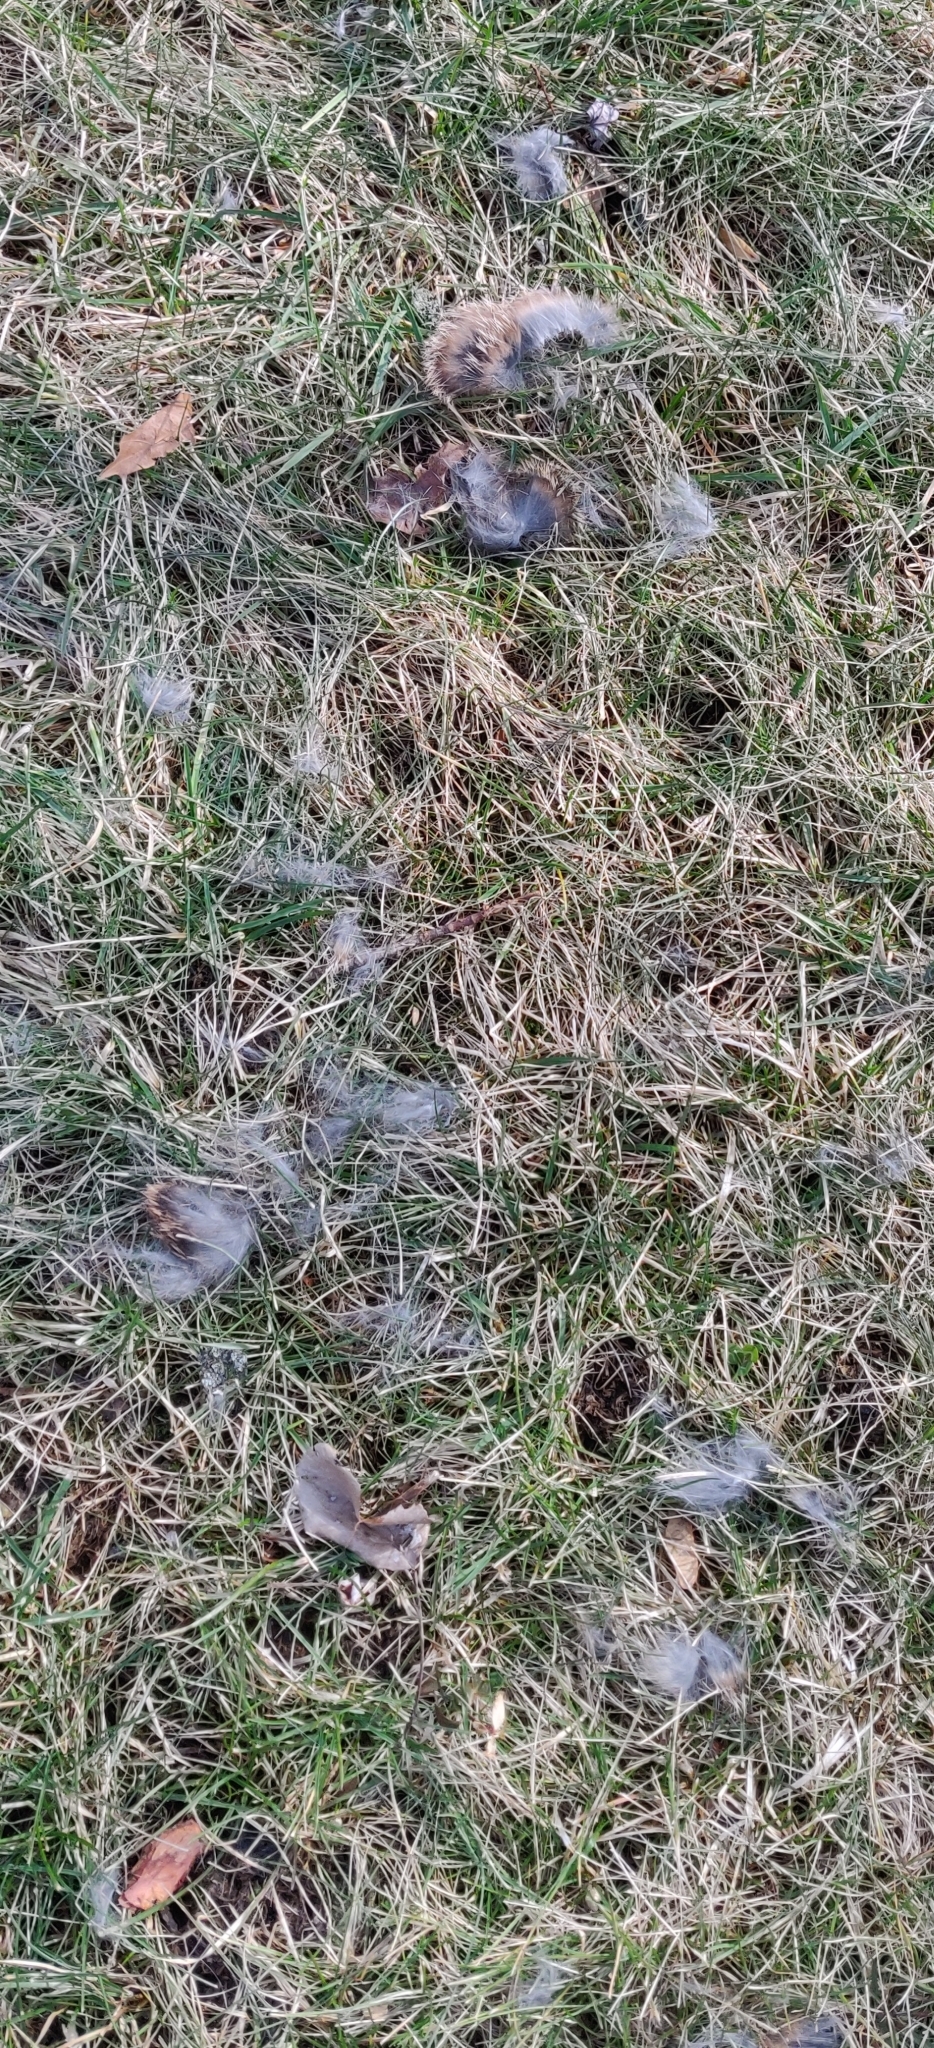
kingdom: Animalia
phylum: Chordata
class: Mammalia
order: Lagomorpha
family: Leporidae
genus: Sylvilagus
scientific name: Sylvilagus floridanus
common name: Eastern cottontail
